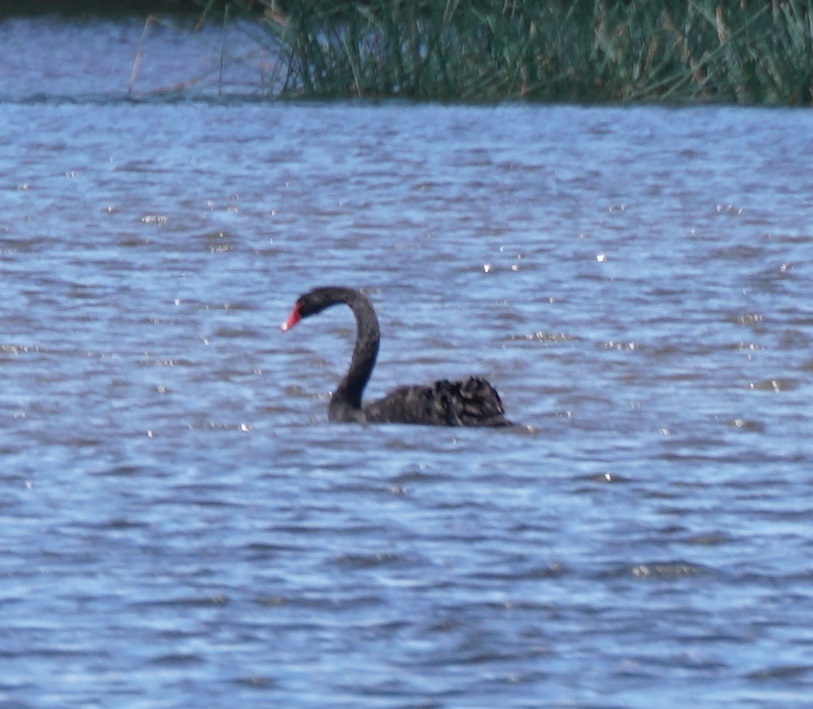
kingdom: Animalia
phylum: Chordata
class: Aves
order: Anseriformes
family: Anatidae
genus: Cygnus
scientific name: Cygnus atratus
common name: Black swan
